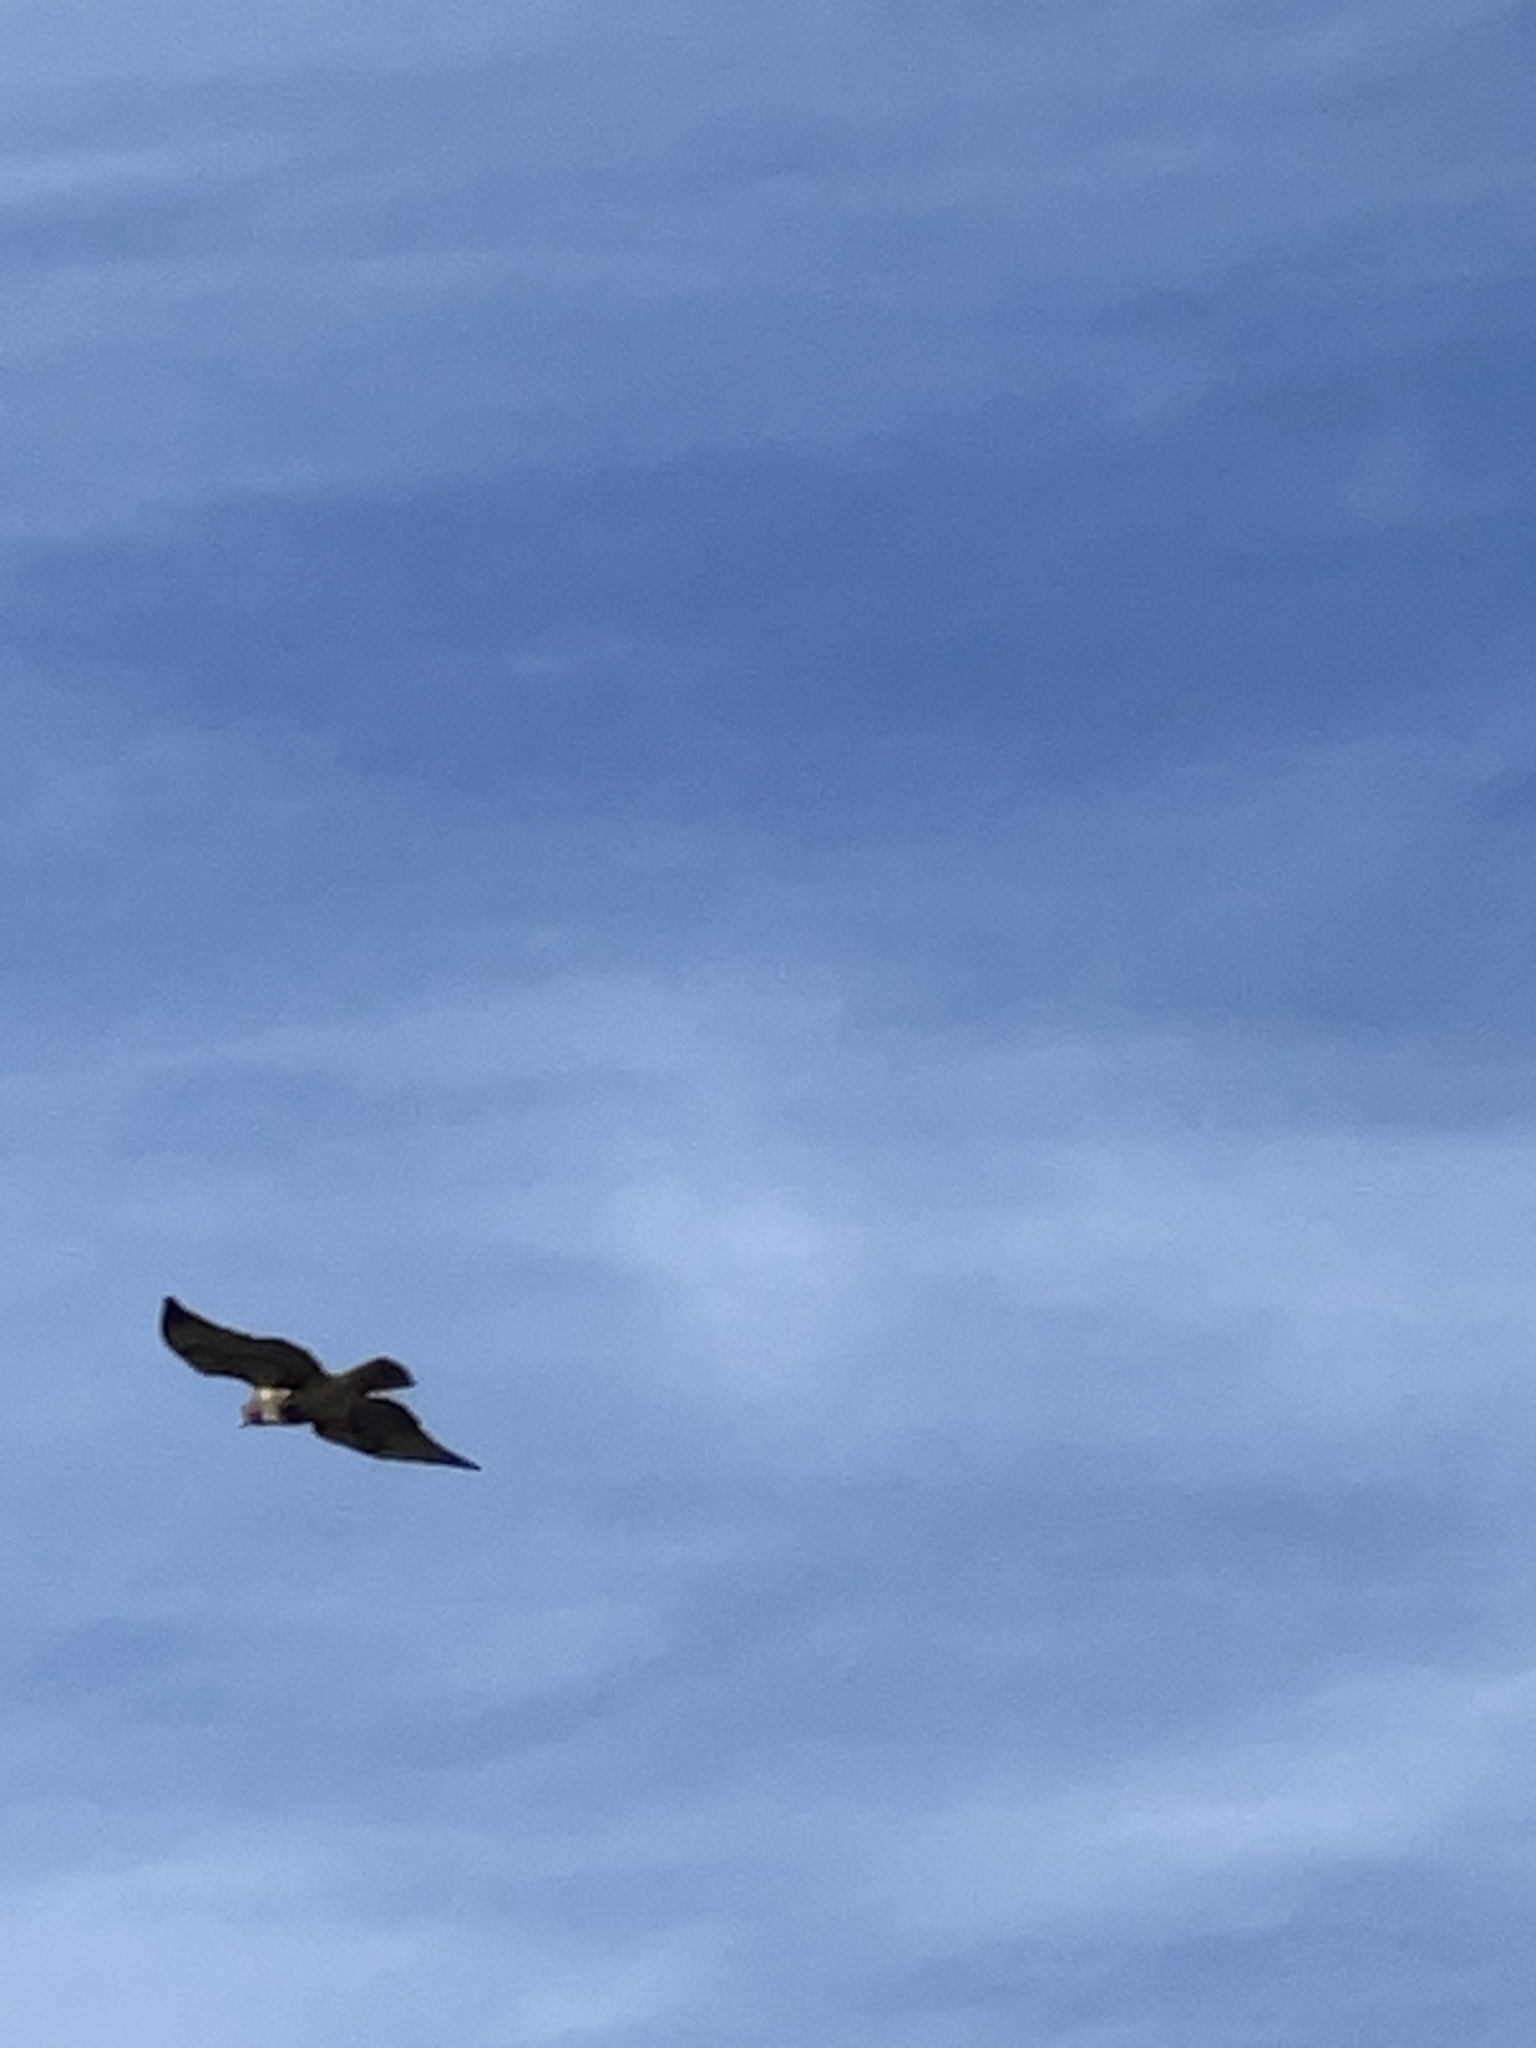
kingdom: Animalia
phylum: Chordata
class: Aves
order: Accipitriformes
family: Accipitridae
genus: Buteo
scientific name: Buteo jamaicensis
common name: Red-tailed hawk
